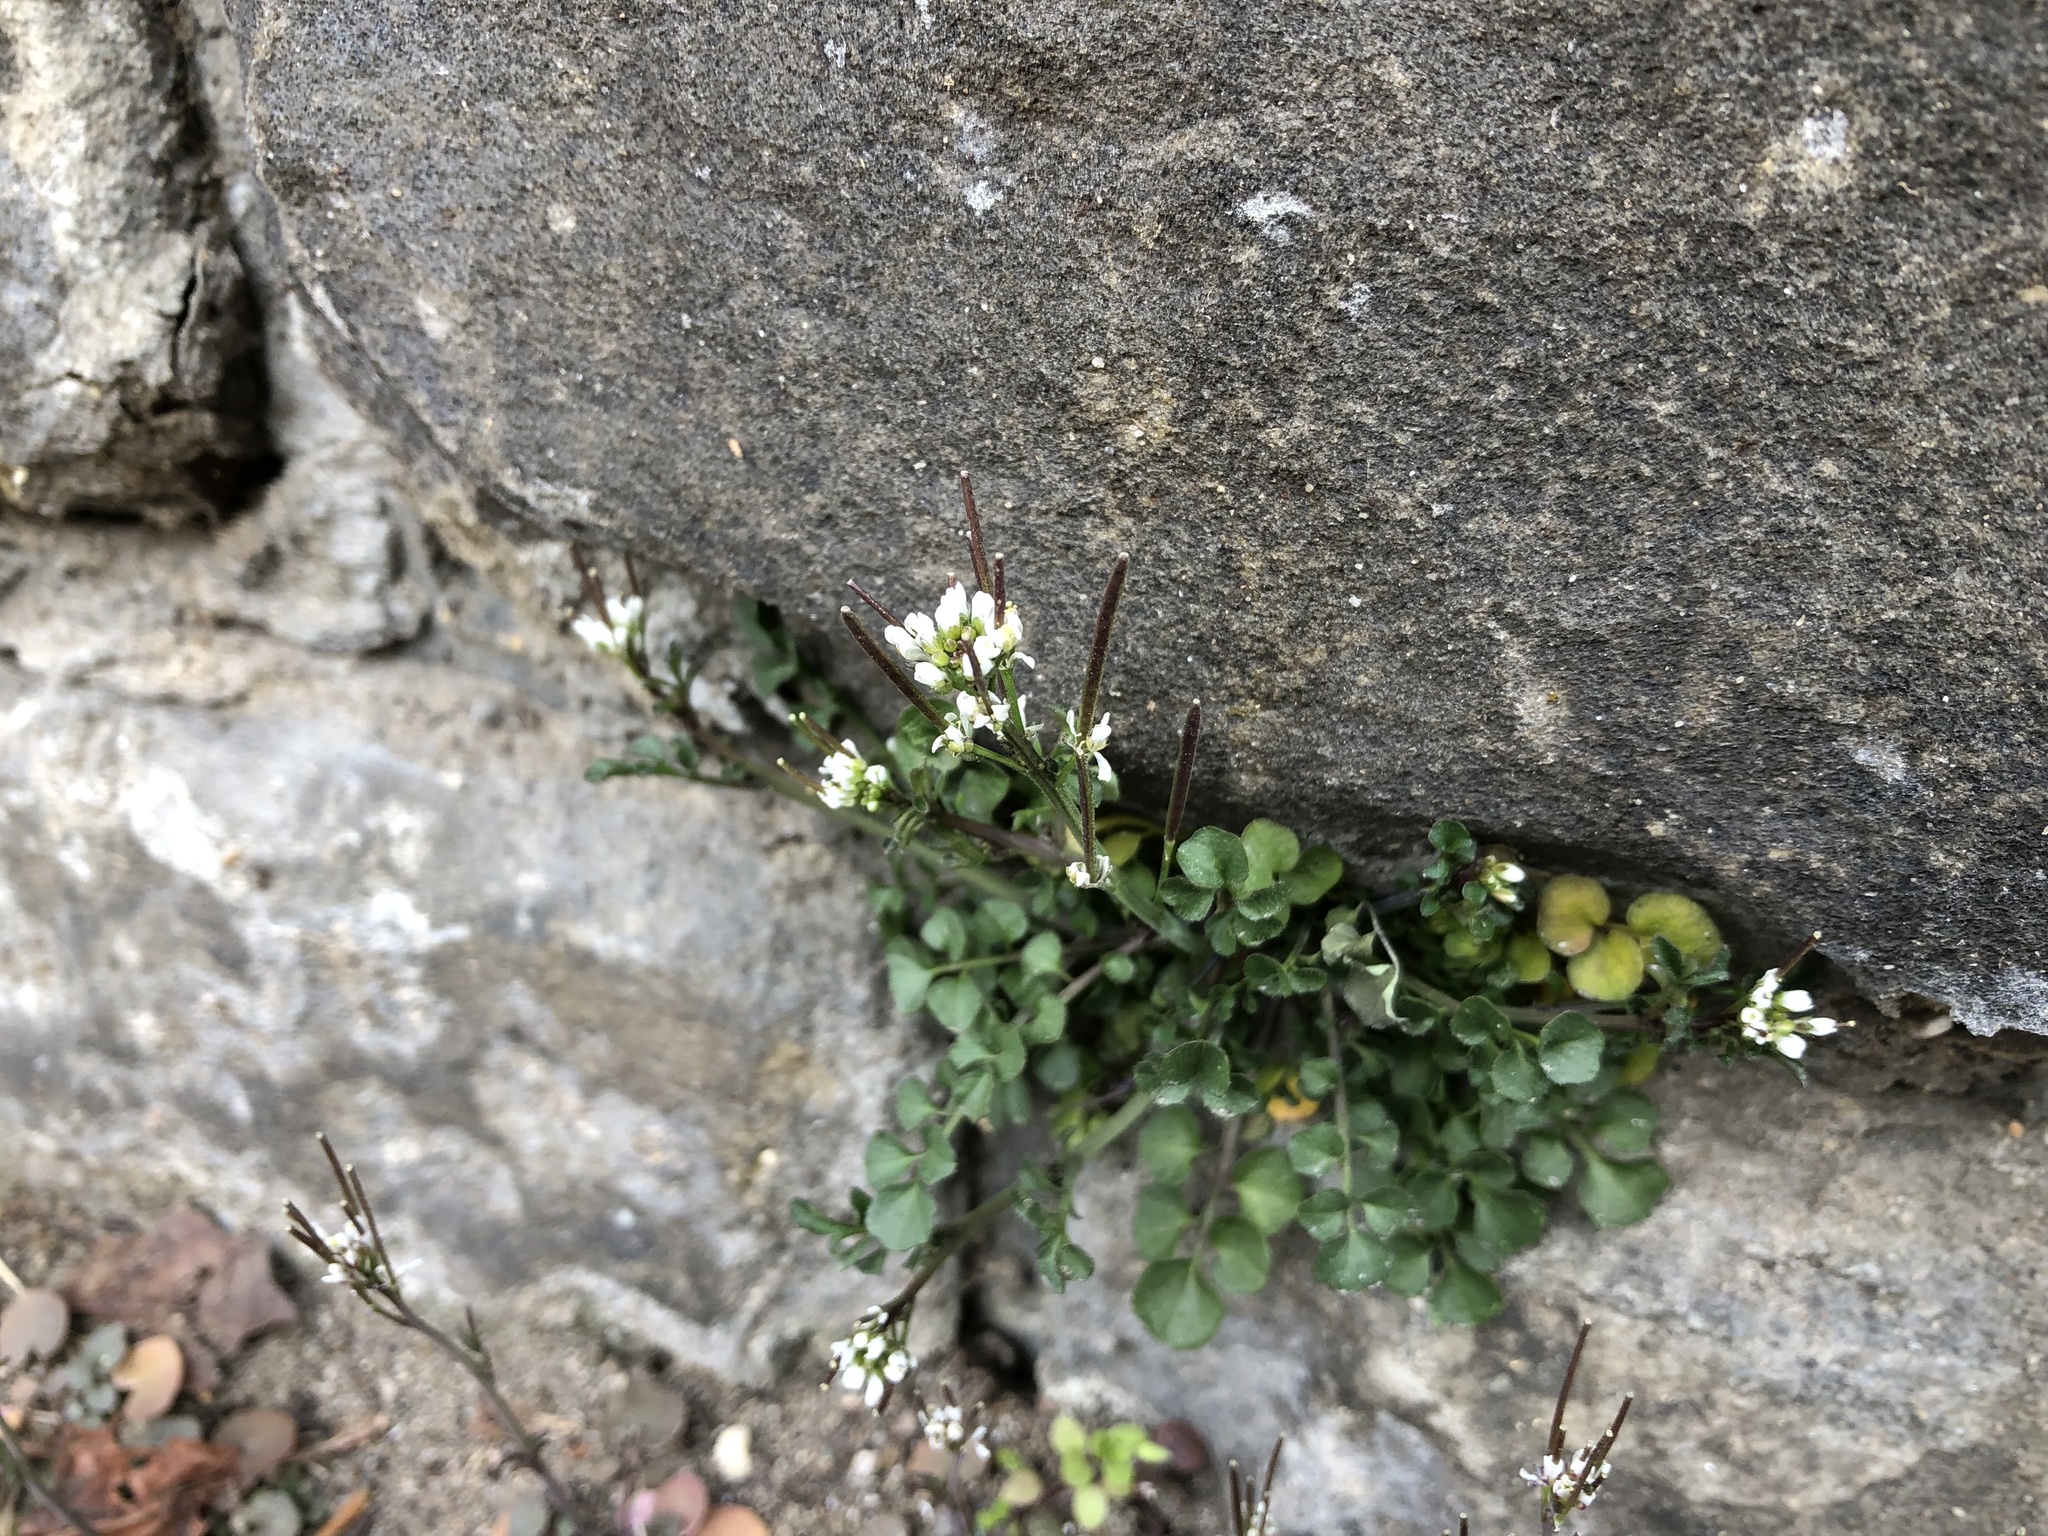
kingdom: Plantae
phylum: Tracheophyta
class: Magnoliopsida
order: Brassicales
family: Brassicaceae
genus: Cardamine
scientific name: Cardamine hirsuta
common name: Hairy bittercress
